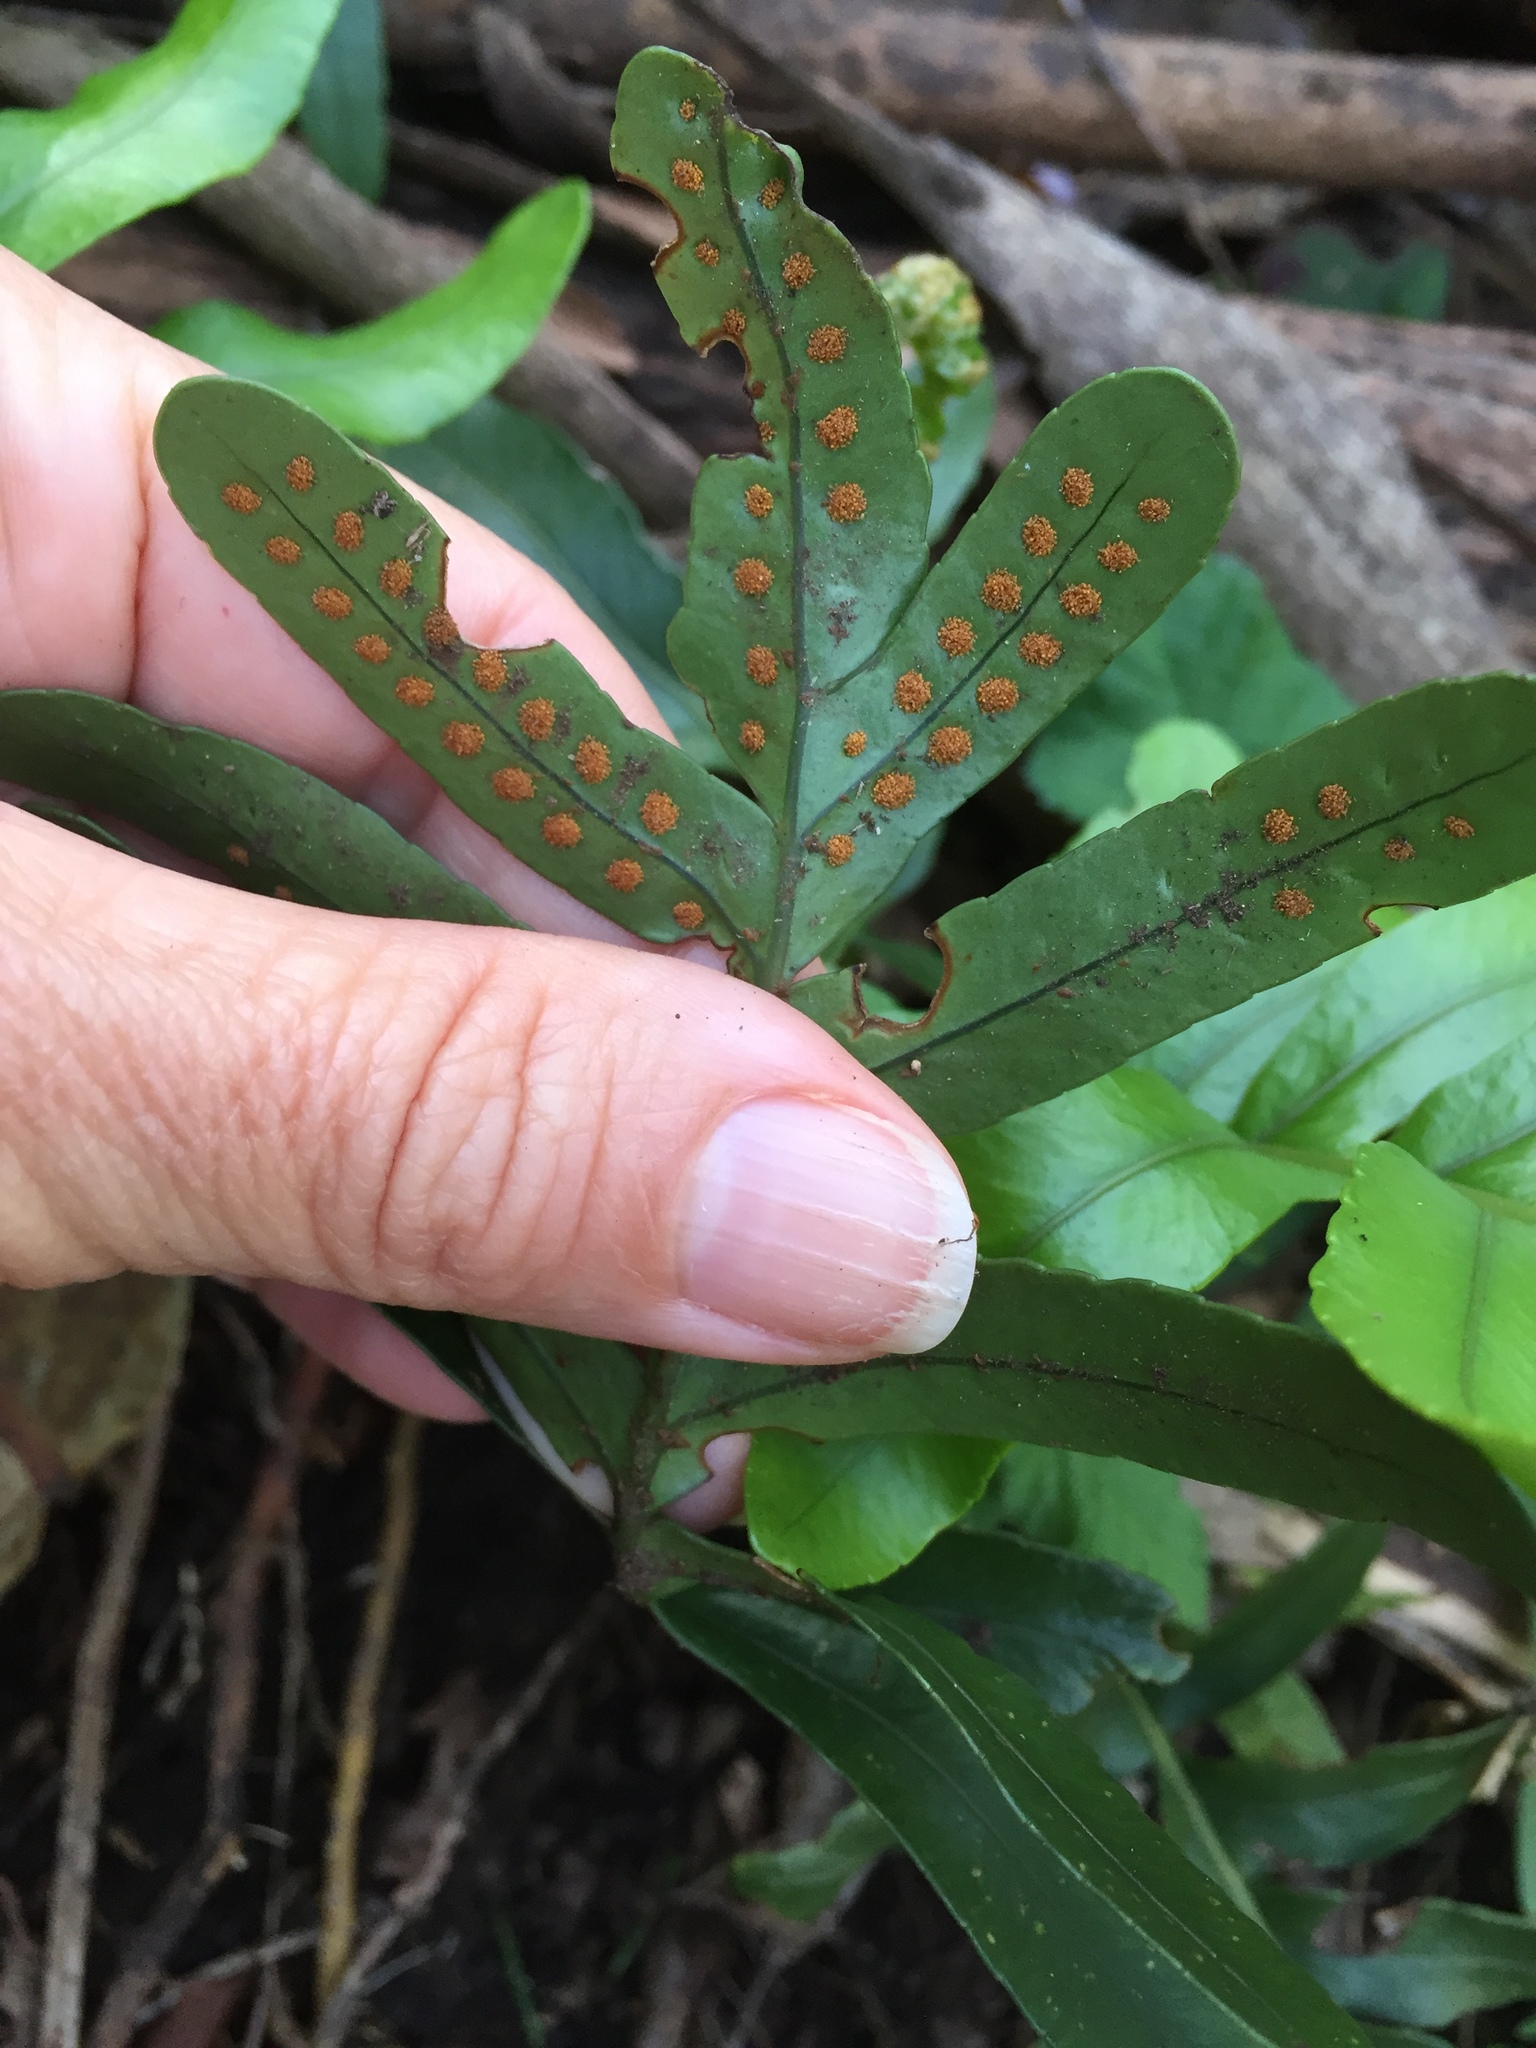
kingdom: Plantae
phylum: Tracheophyta
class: Polypodiopsida
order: Polypodiales
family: Polypodiaceae
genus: Polypodium
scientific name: Polypodium scouleri
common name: Scouler's polypody
